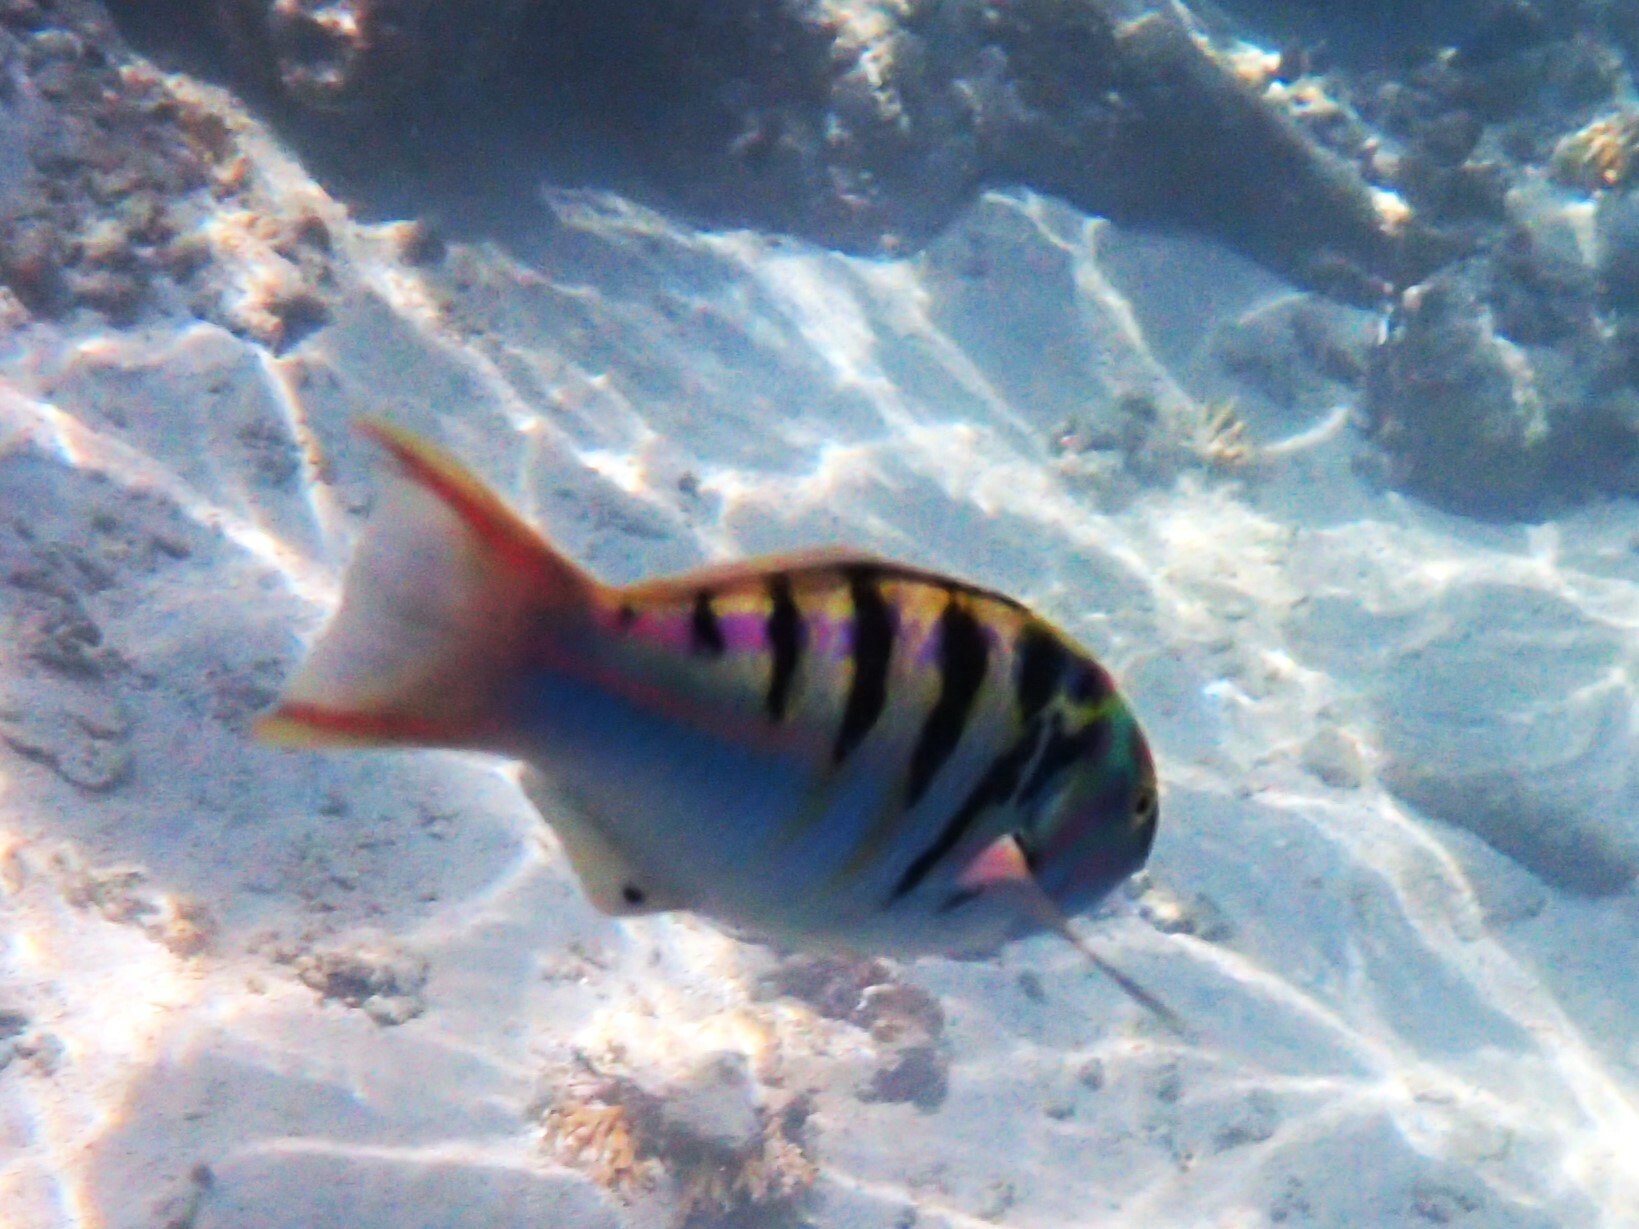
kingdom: Animalia
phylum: Chordata
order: Perciformes
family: Labridae
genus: Thalassoma
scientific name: Thalassoma hardwicke
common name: Sixbar wrasse
